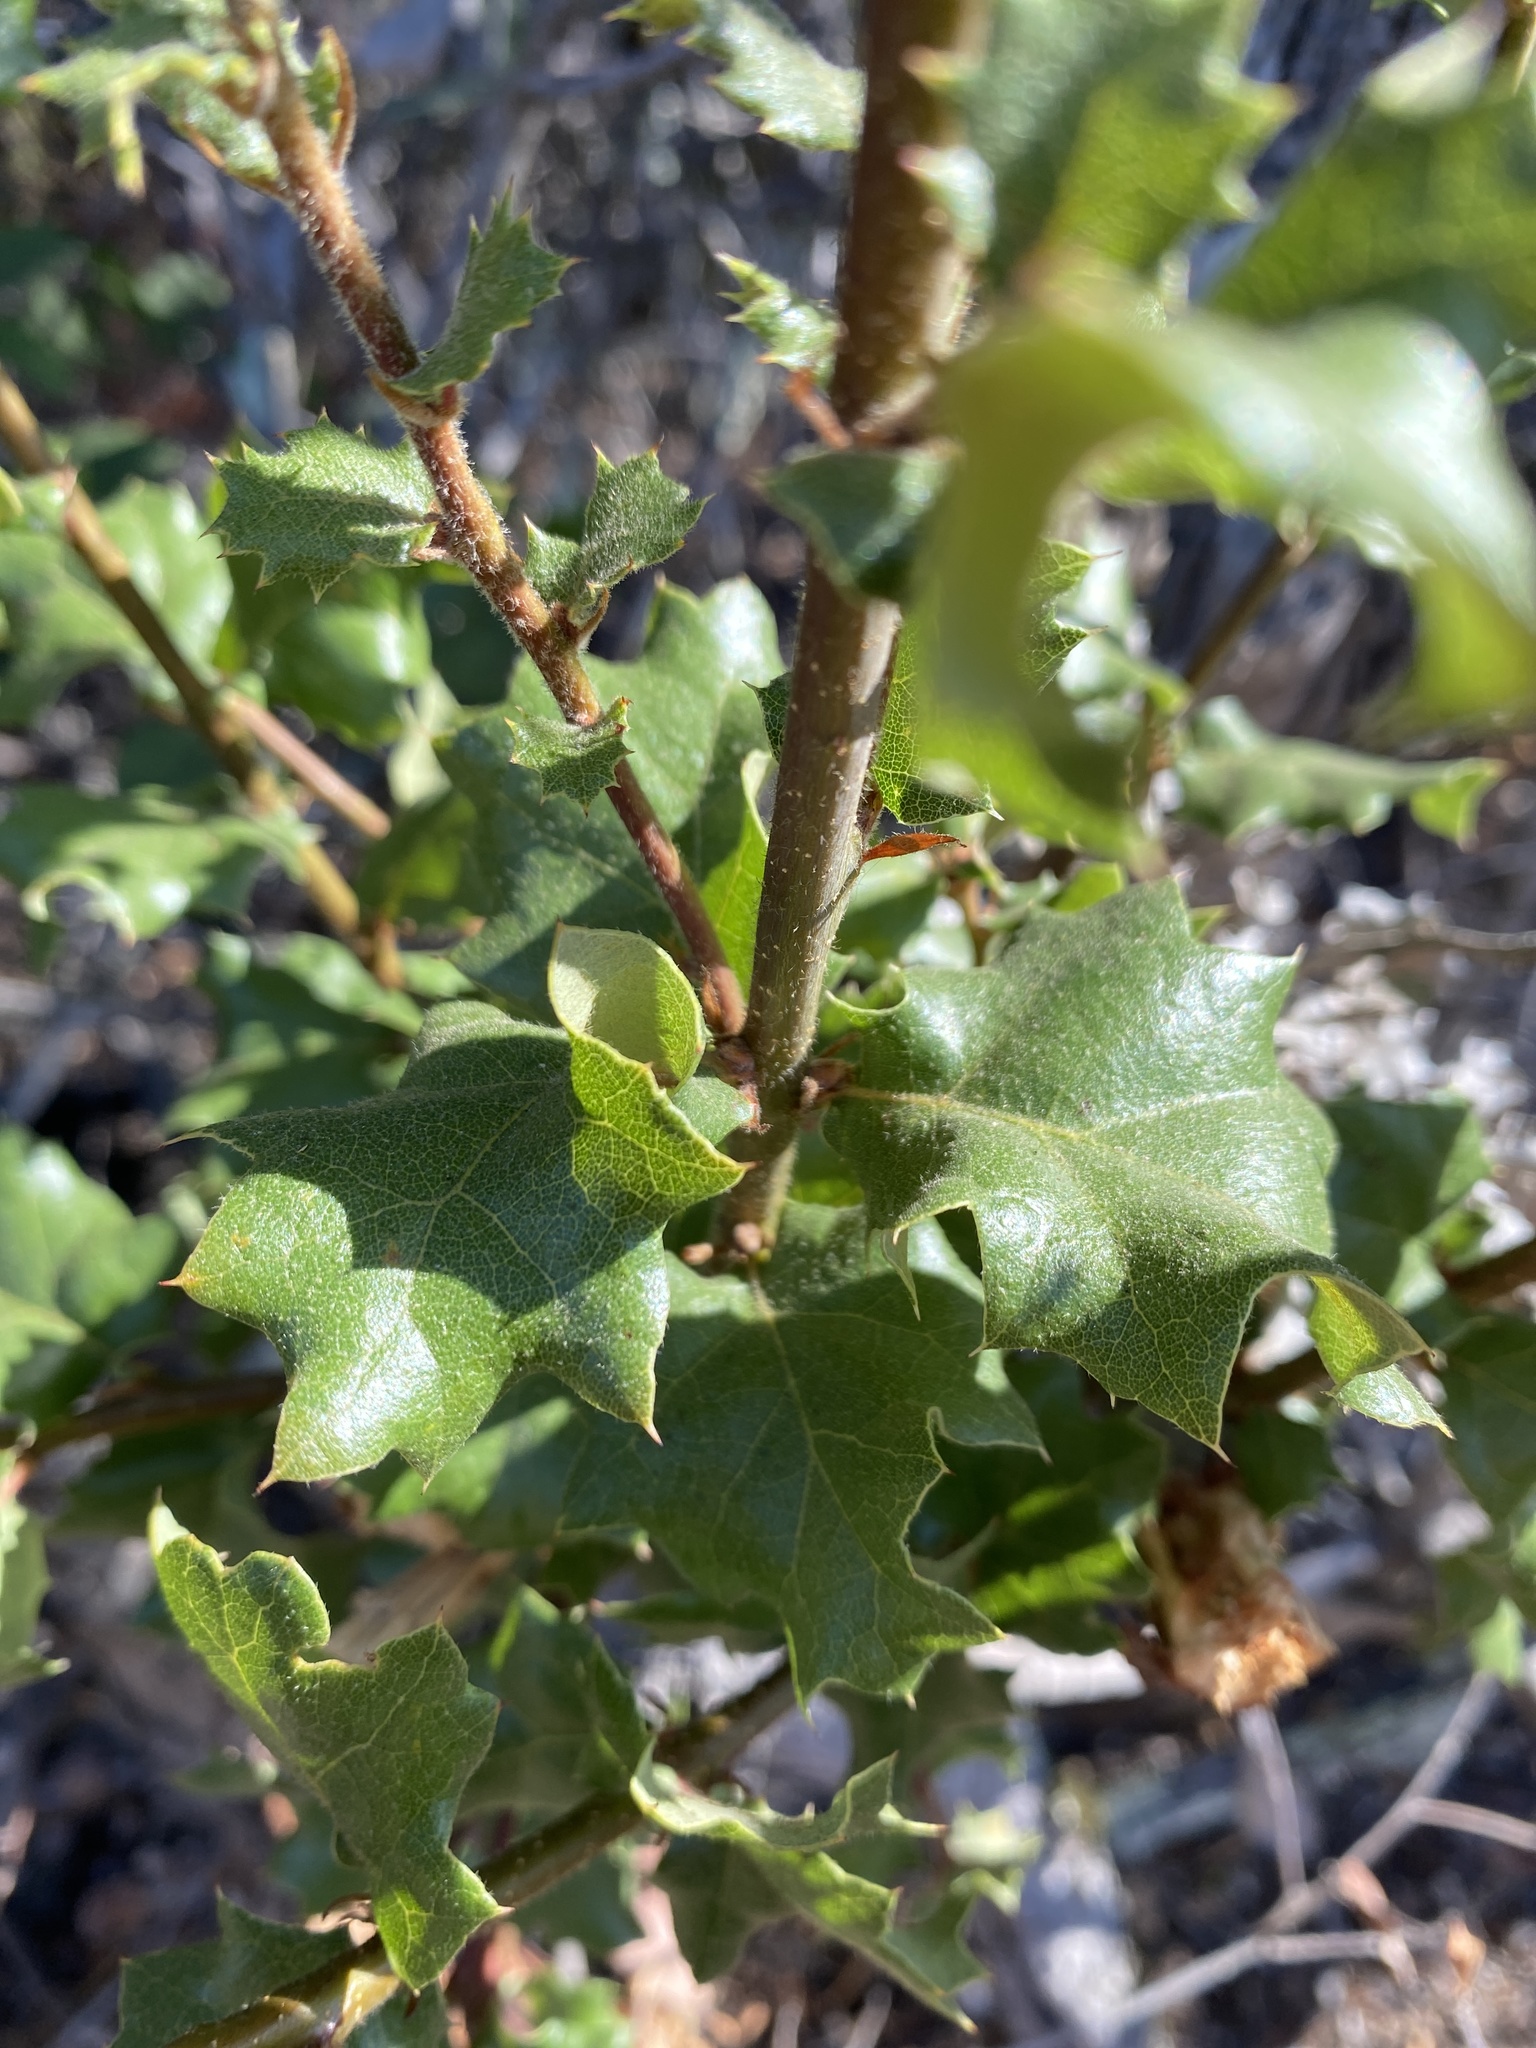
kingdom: Plantae
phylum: Tracheophyta
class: Magnoliopsida
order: Fagales
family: Fagaceae
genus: Quercus
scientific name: Quercus berberidifolia
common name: California scrub oak
